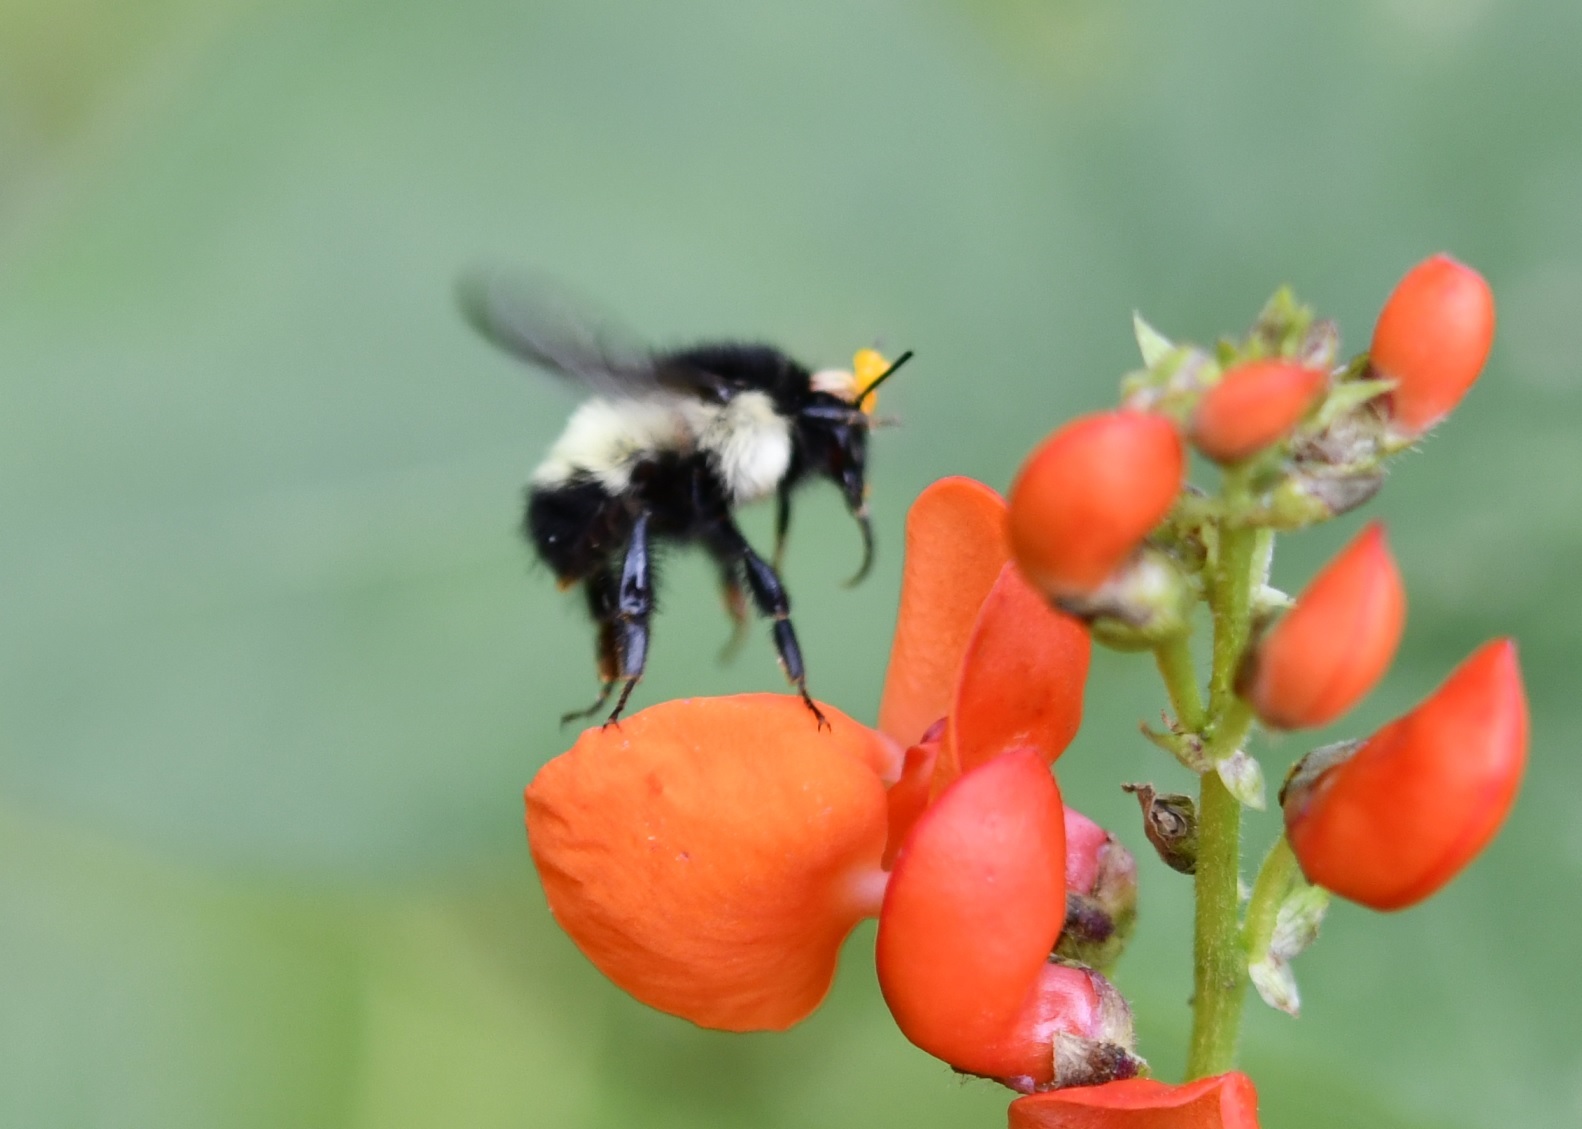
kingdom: Animalia
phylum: Arthropoda
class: Insecta
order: Hymenoptera
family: Apidae
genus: Bombus
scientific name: Bombus weisi
